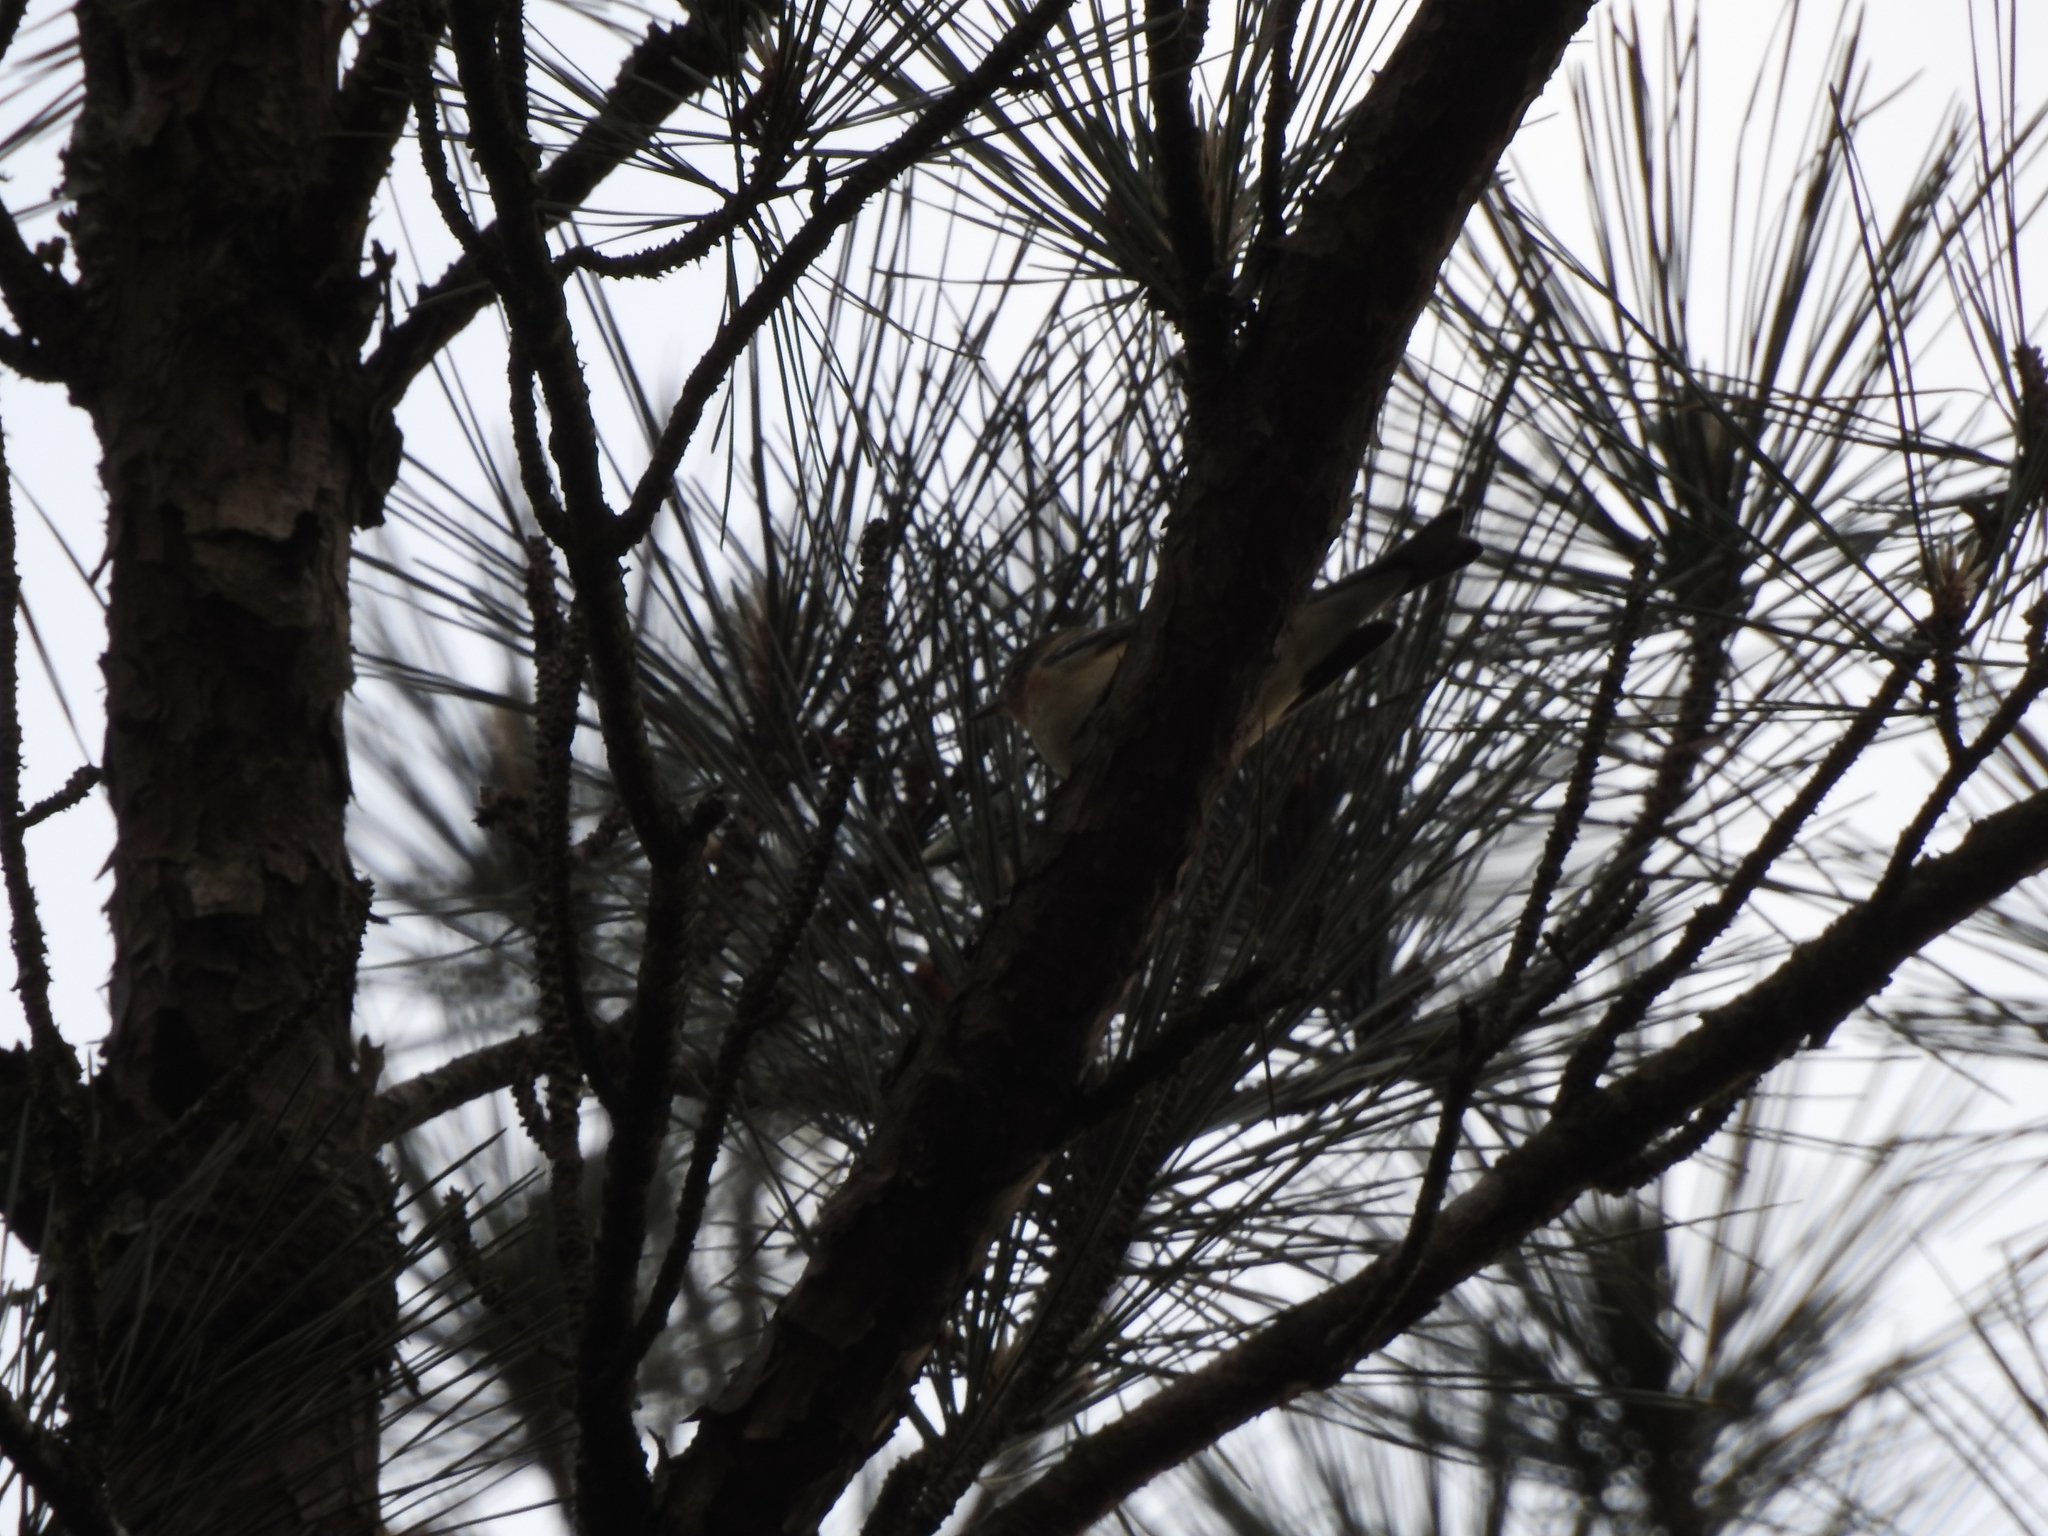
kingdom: Animalia
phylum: Chordata
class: Aves
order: Passeriformes
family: Parulidae
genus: Setophaga
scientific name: Setophaga castanea
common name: Bay-breasted warbler
